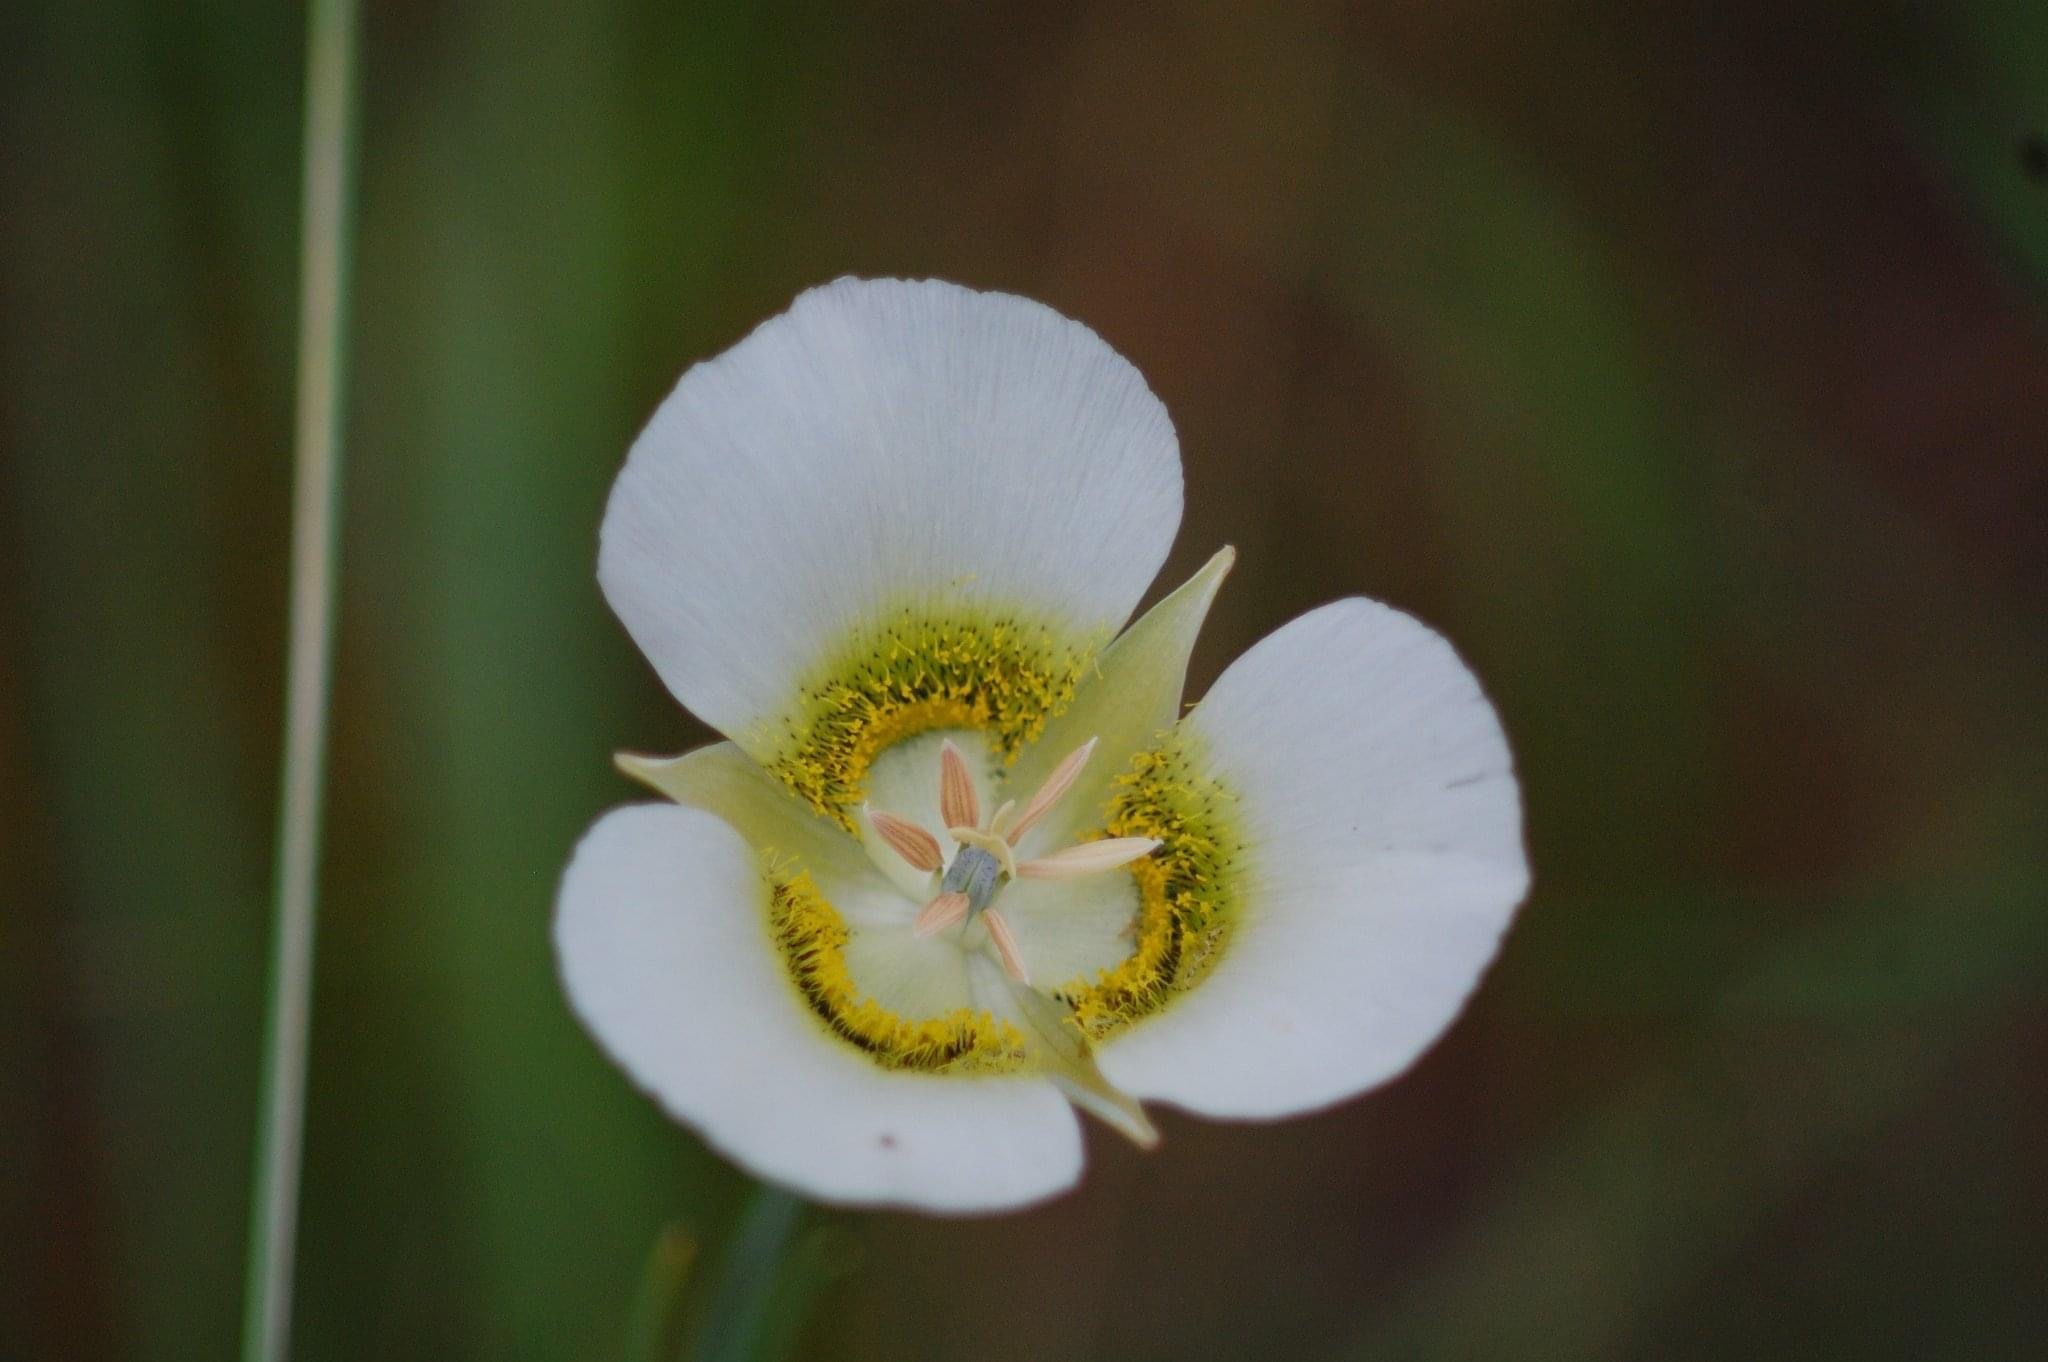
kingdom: Plantae
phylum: Tracheophyta
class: Liliopsida
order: Liliales
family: Liliaceae
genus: Calochortus
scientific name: Calochortus gunnisonii
